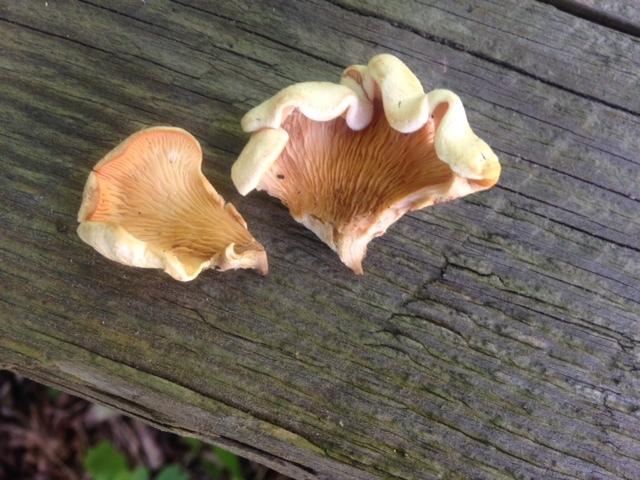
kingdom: Fungi
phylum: Basidiomycota
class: Agaricomycetes
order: Agaricales
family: Phyllotopsidaceae
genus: Phyllotopsis
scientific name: Phyllotopsis nidulans
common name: Orange mock oyster
